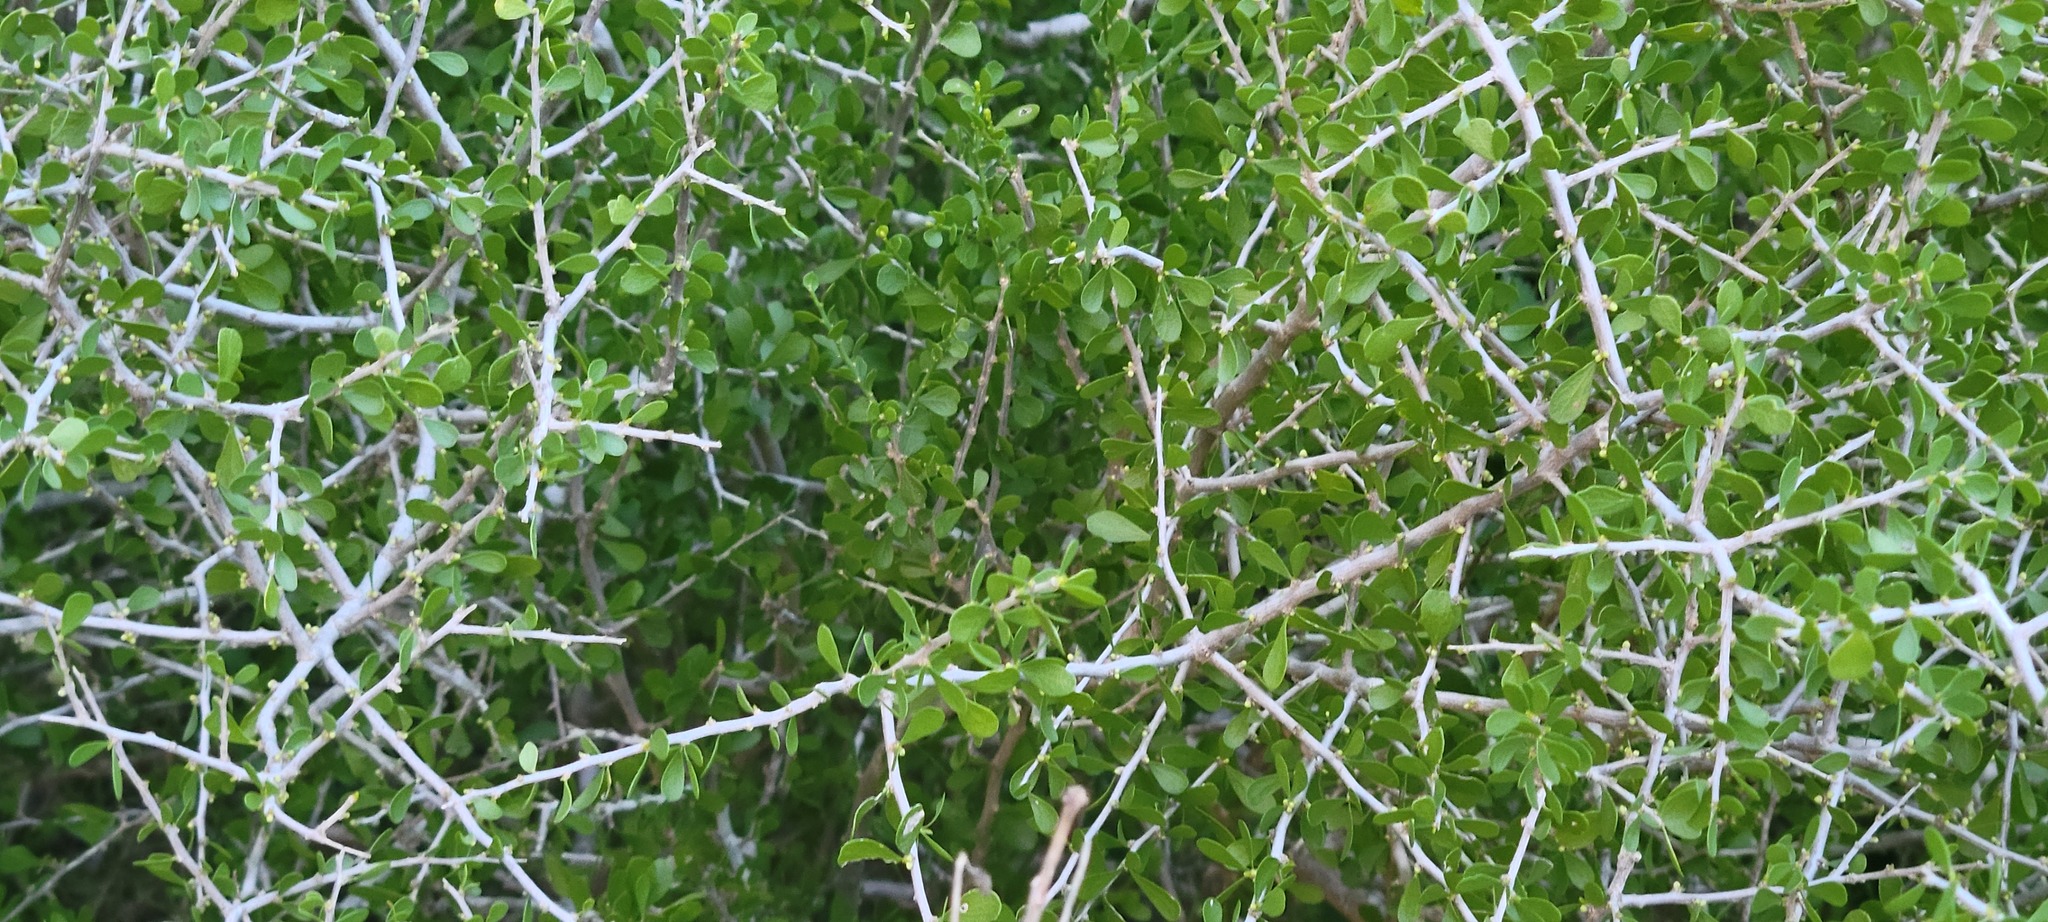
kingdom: Plantae
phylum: Tracheophyta
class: Magnoliopsida
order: Celastrales
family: Celastraceae
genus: Schaefferia
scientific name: Schaefferia cuneifolia
